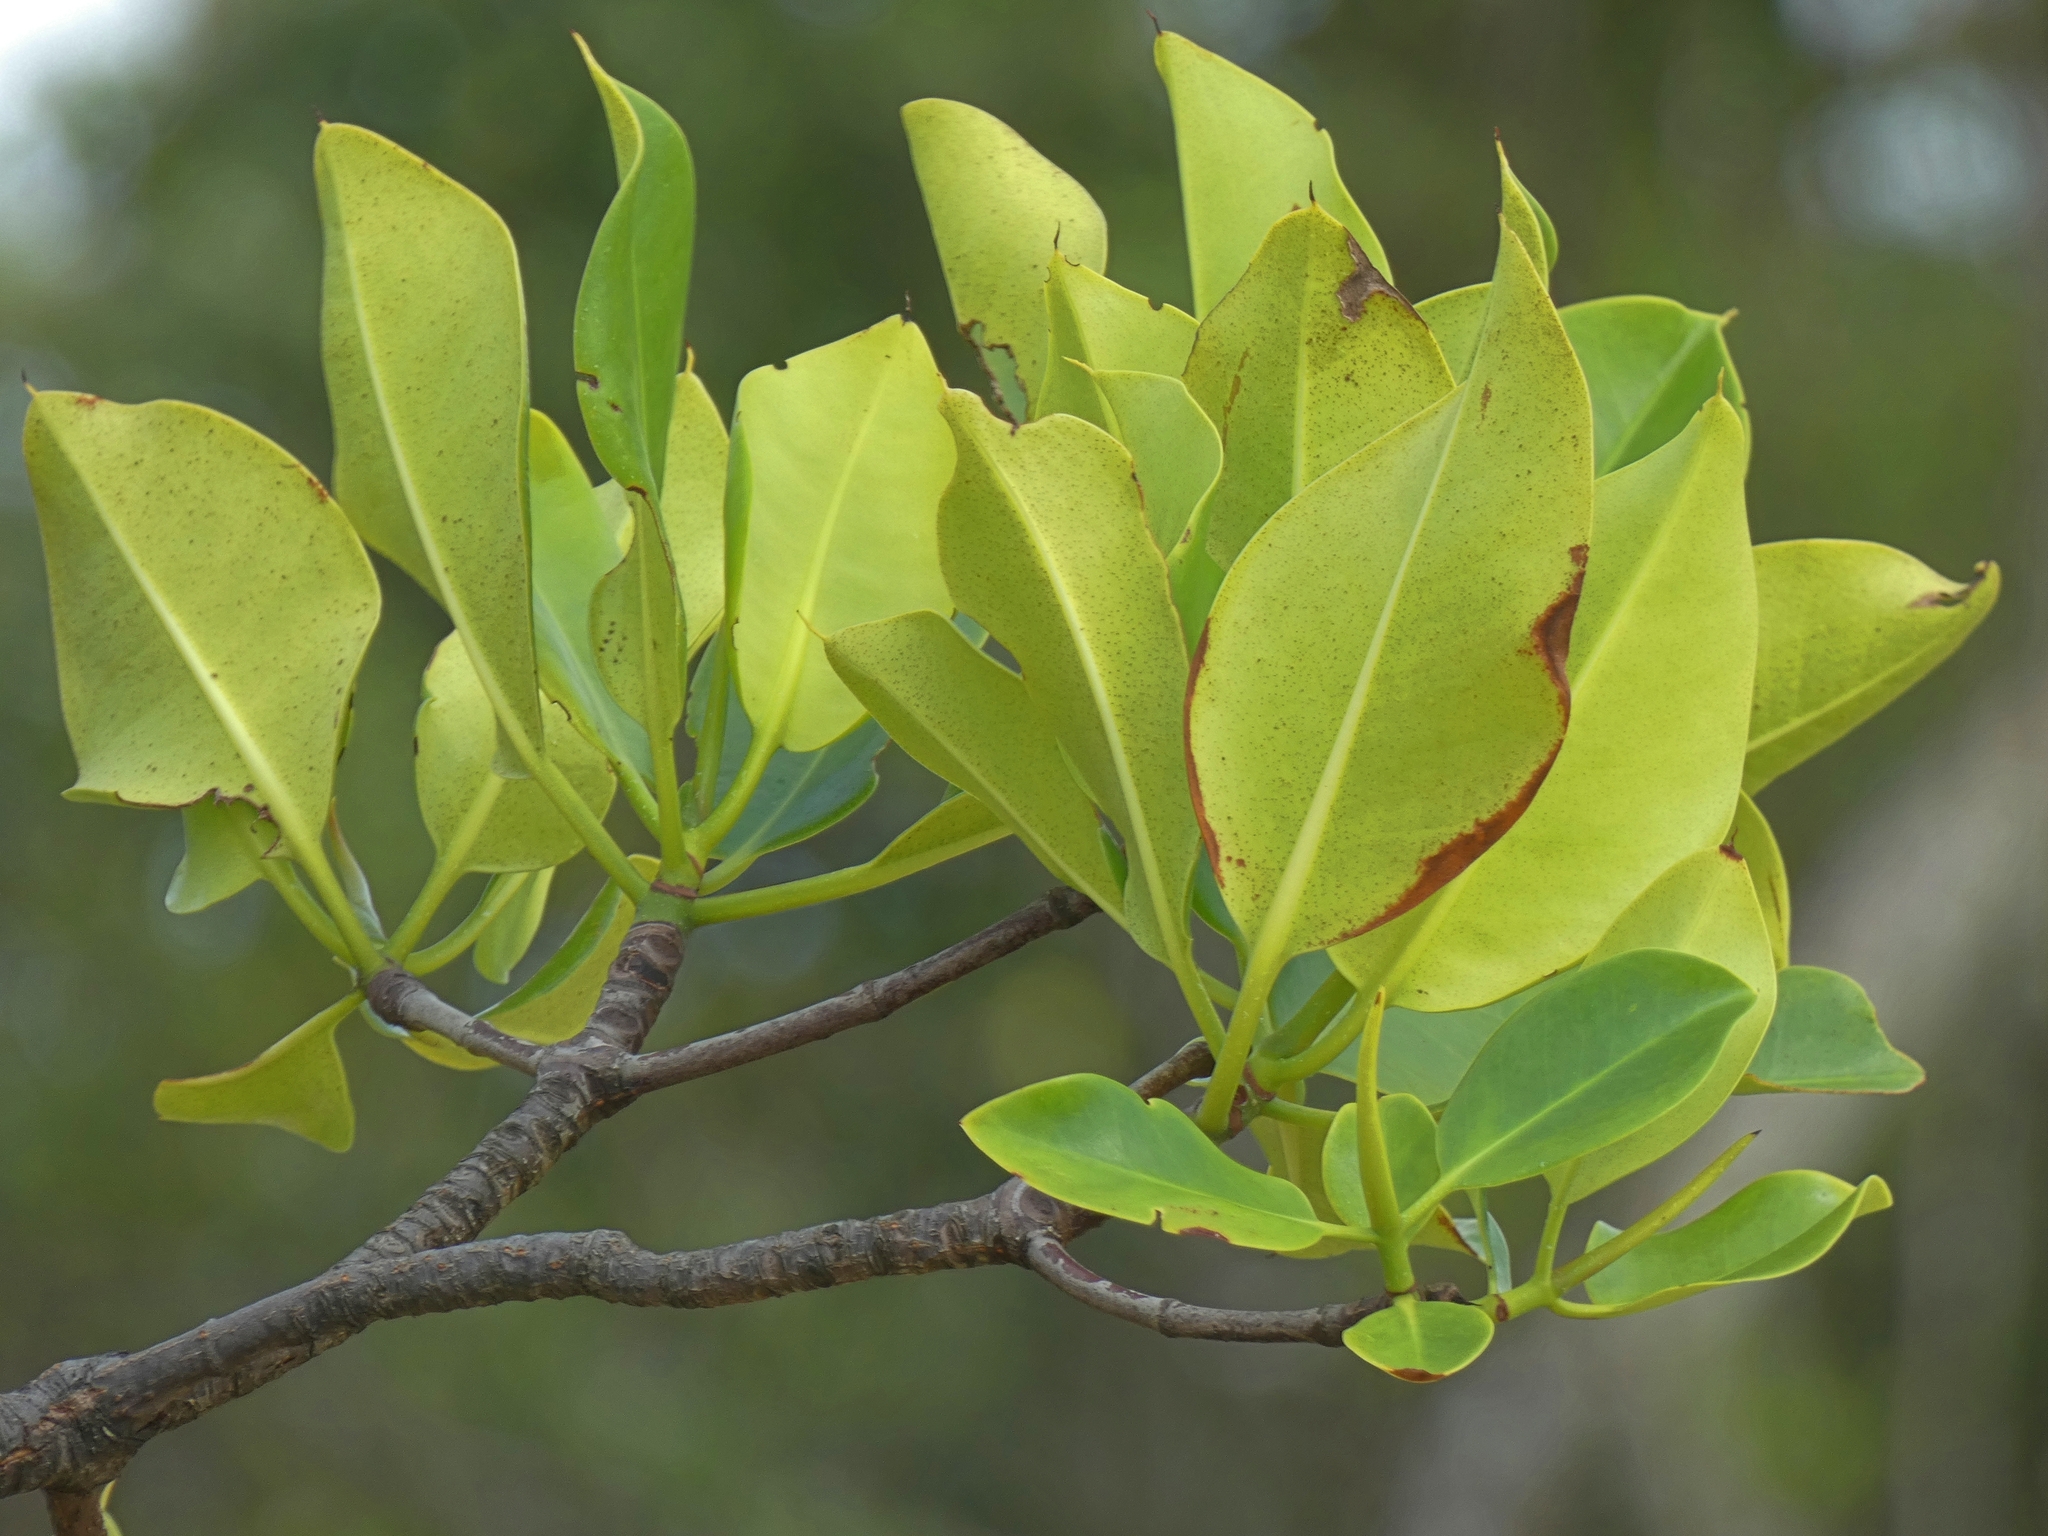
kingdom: Plantae
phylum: Tracheophyta
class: Magnoliopsida
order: Malpighiales
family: Rhizophoraceae
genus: Rhizophora
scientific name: Rhizophora stylosa
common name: Red mangrove
